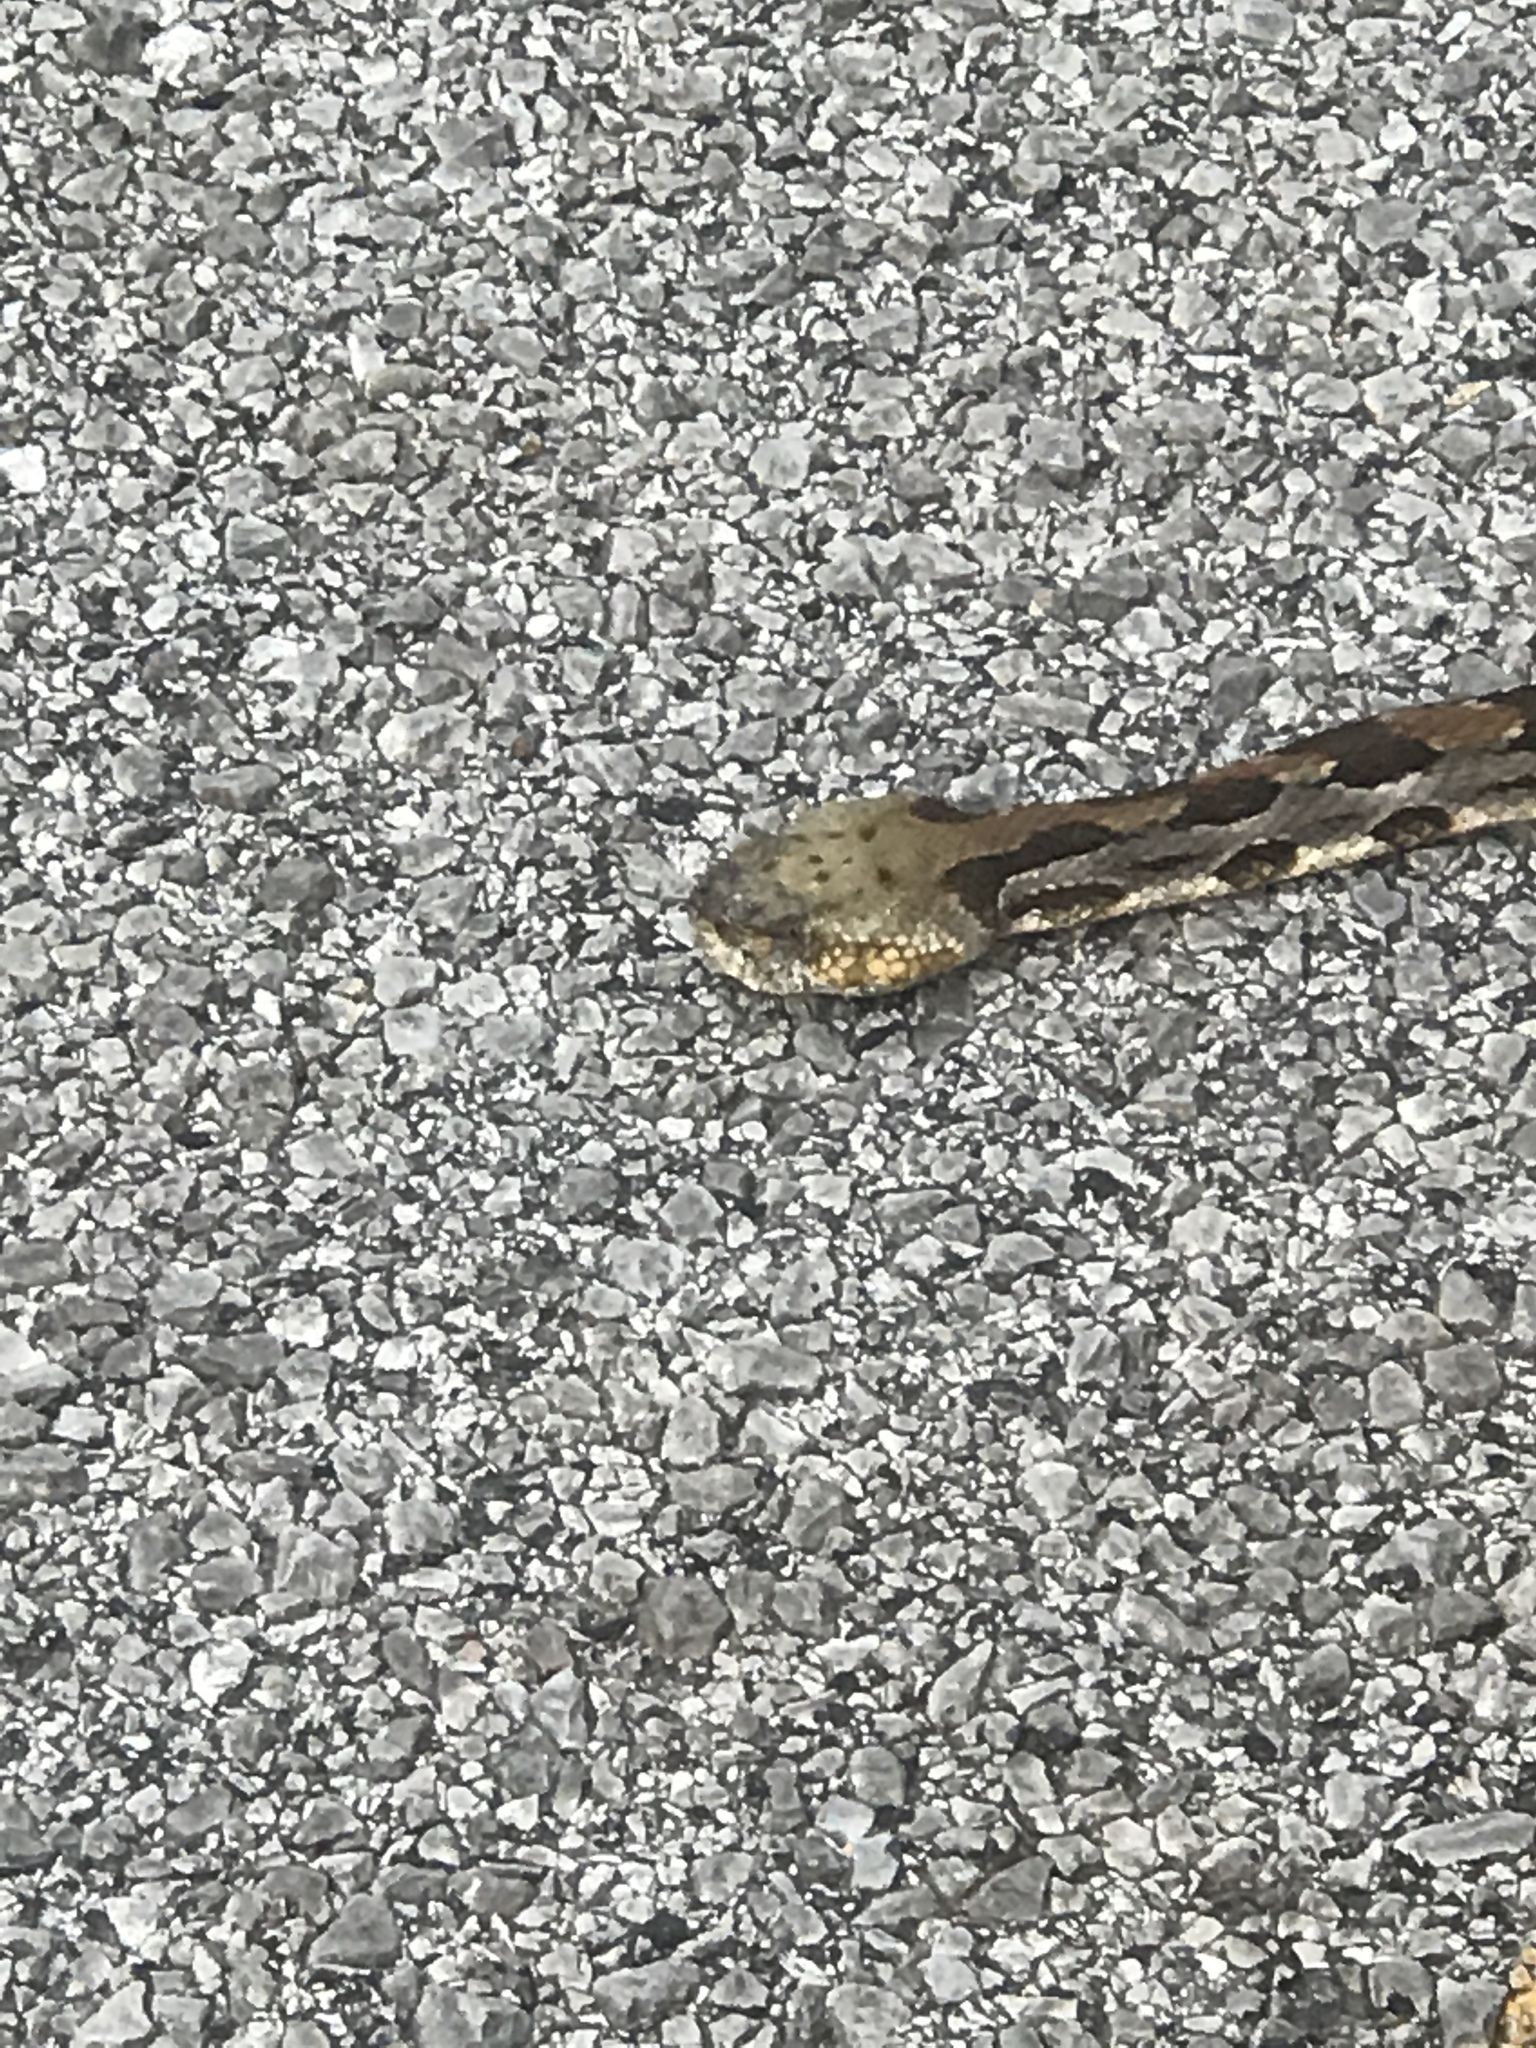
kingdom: Animalia
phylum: Chordata
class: Squamata
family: Viperidae
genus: Crotalus
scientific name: Crotalus horridus
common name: Timber rattlesnake
